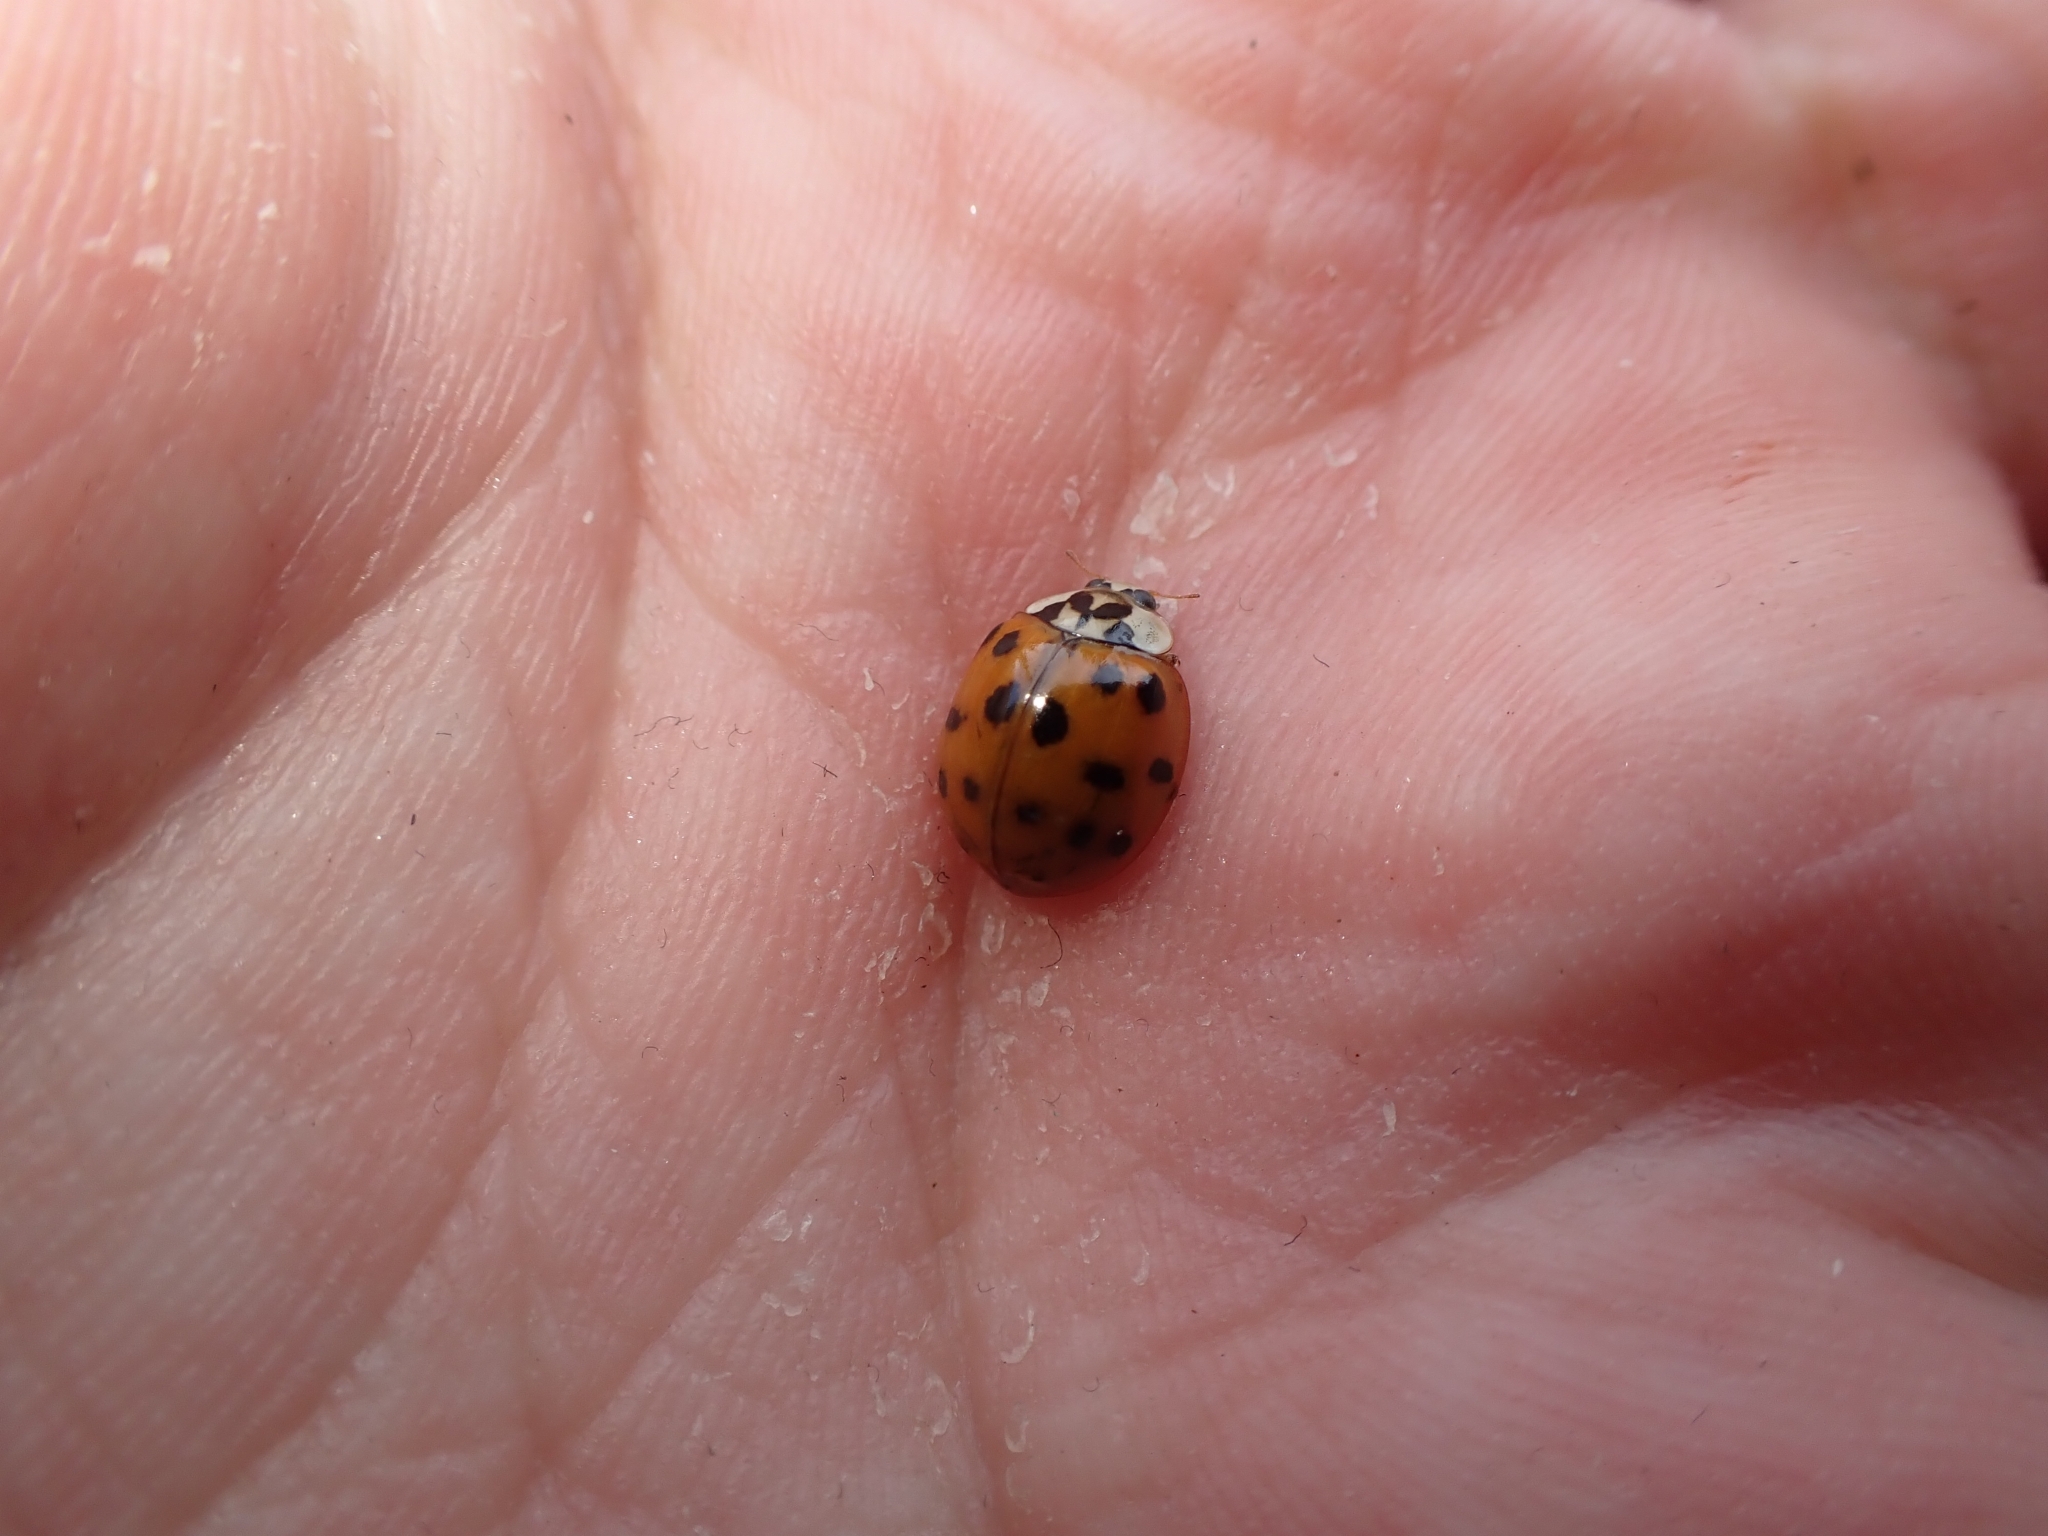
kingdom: Animalia
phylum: Arthropoda
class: Insecta
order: Coleoptera
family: Coccinellidae
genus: Harmonia
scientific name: Harmonia axyridis
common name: Harlequin ladybird
